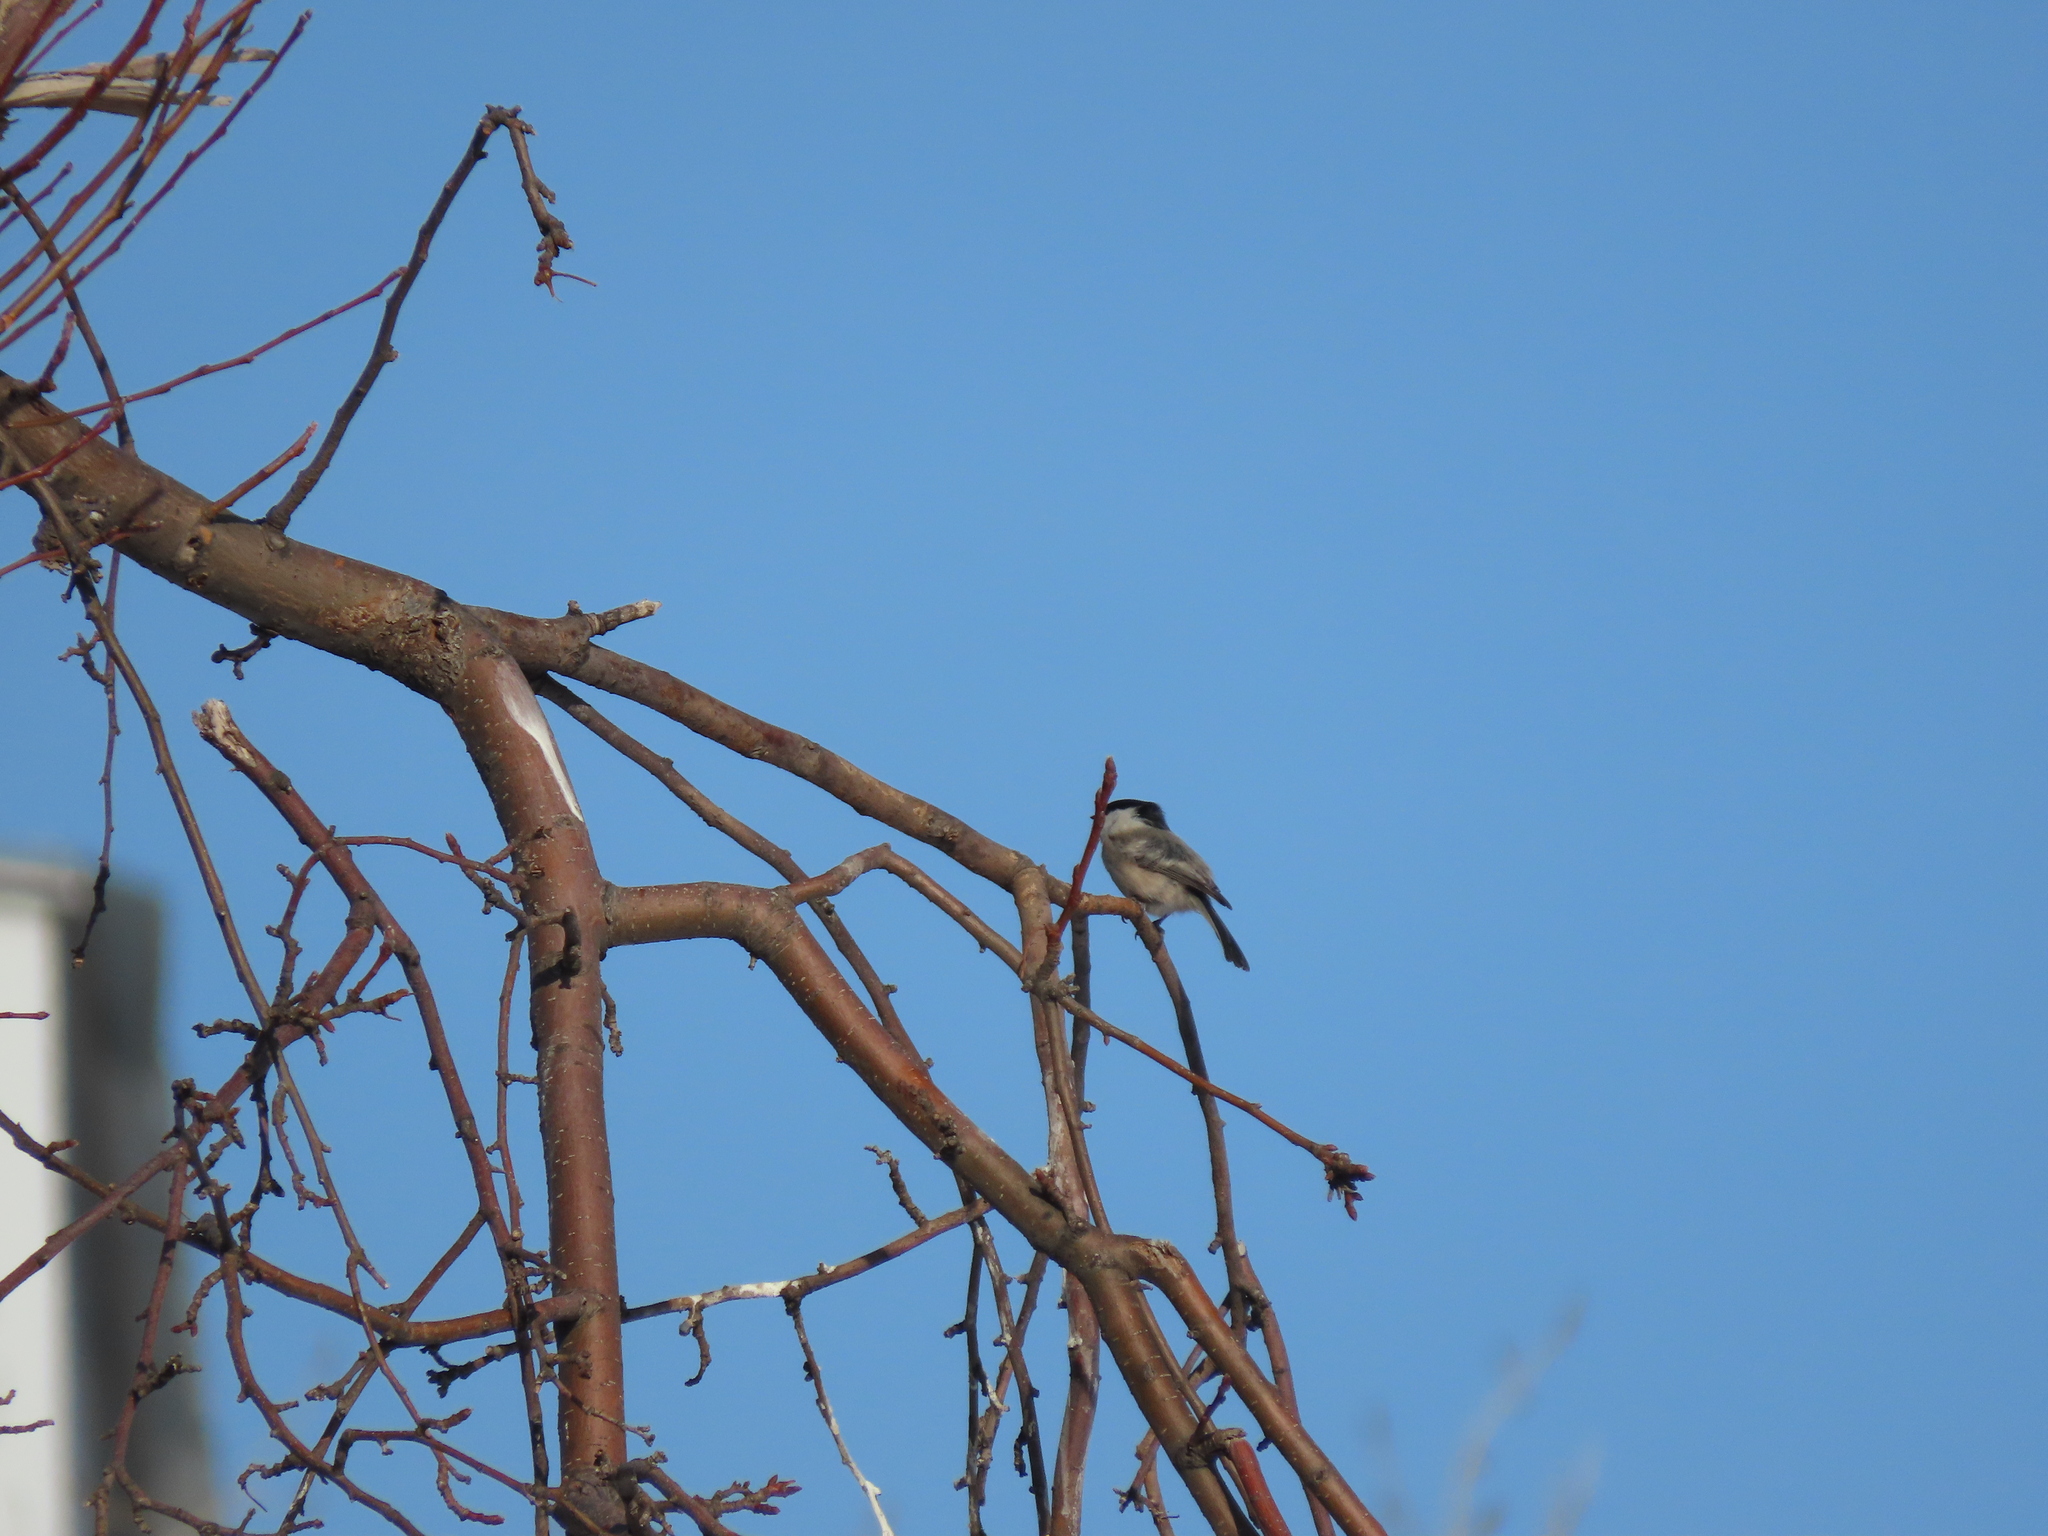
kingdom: Animalia
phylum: Chordata
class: Aves
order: Passeriformes
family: Paridae
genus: Poecile
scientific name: Poecile montanus
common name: Willow tit
